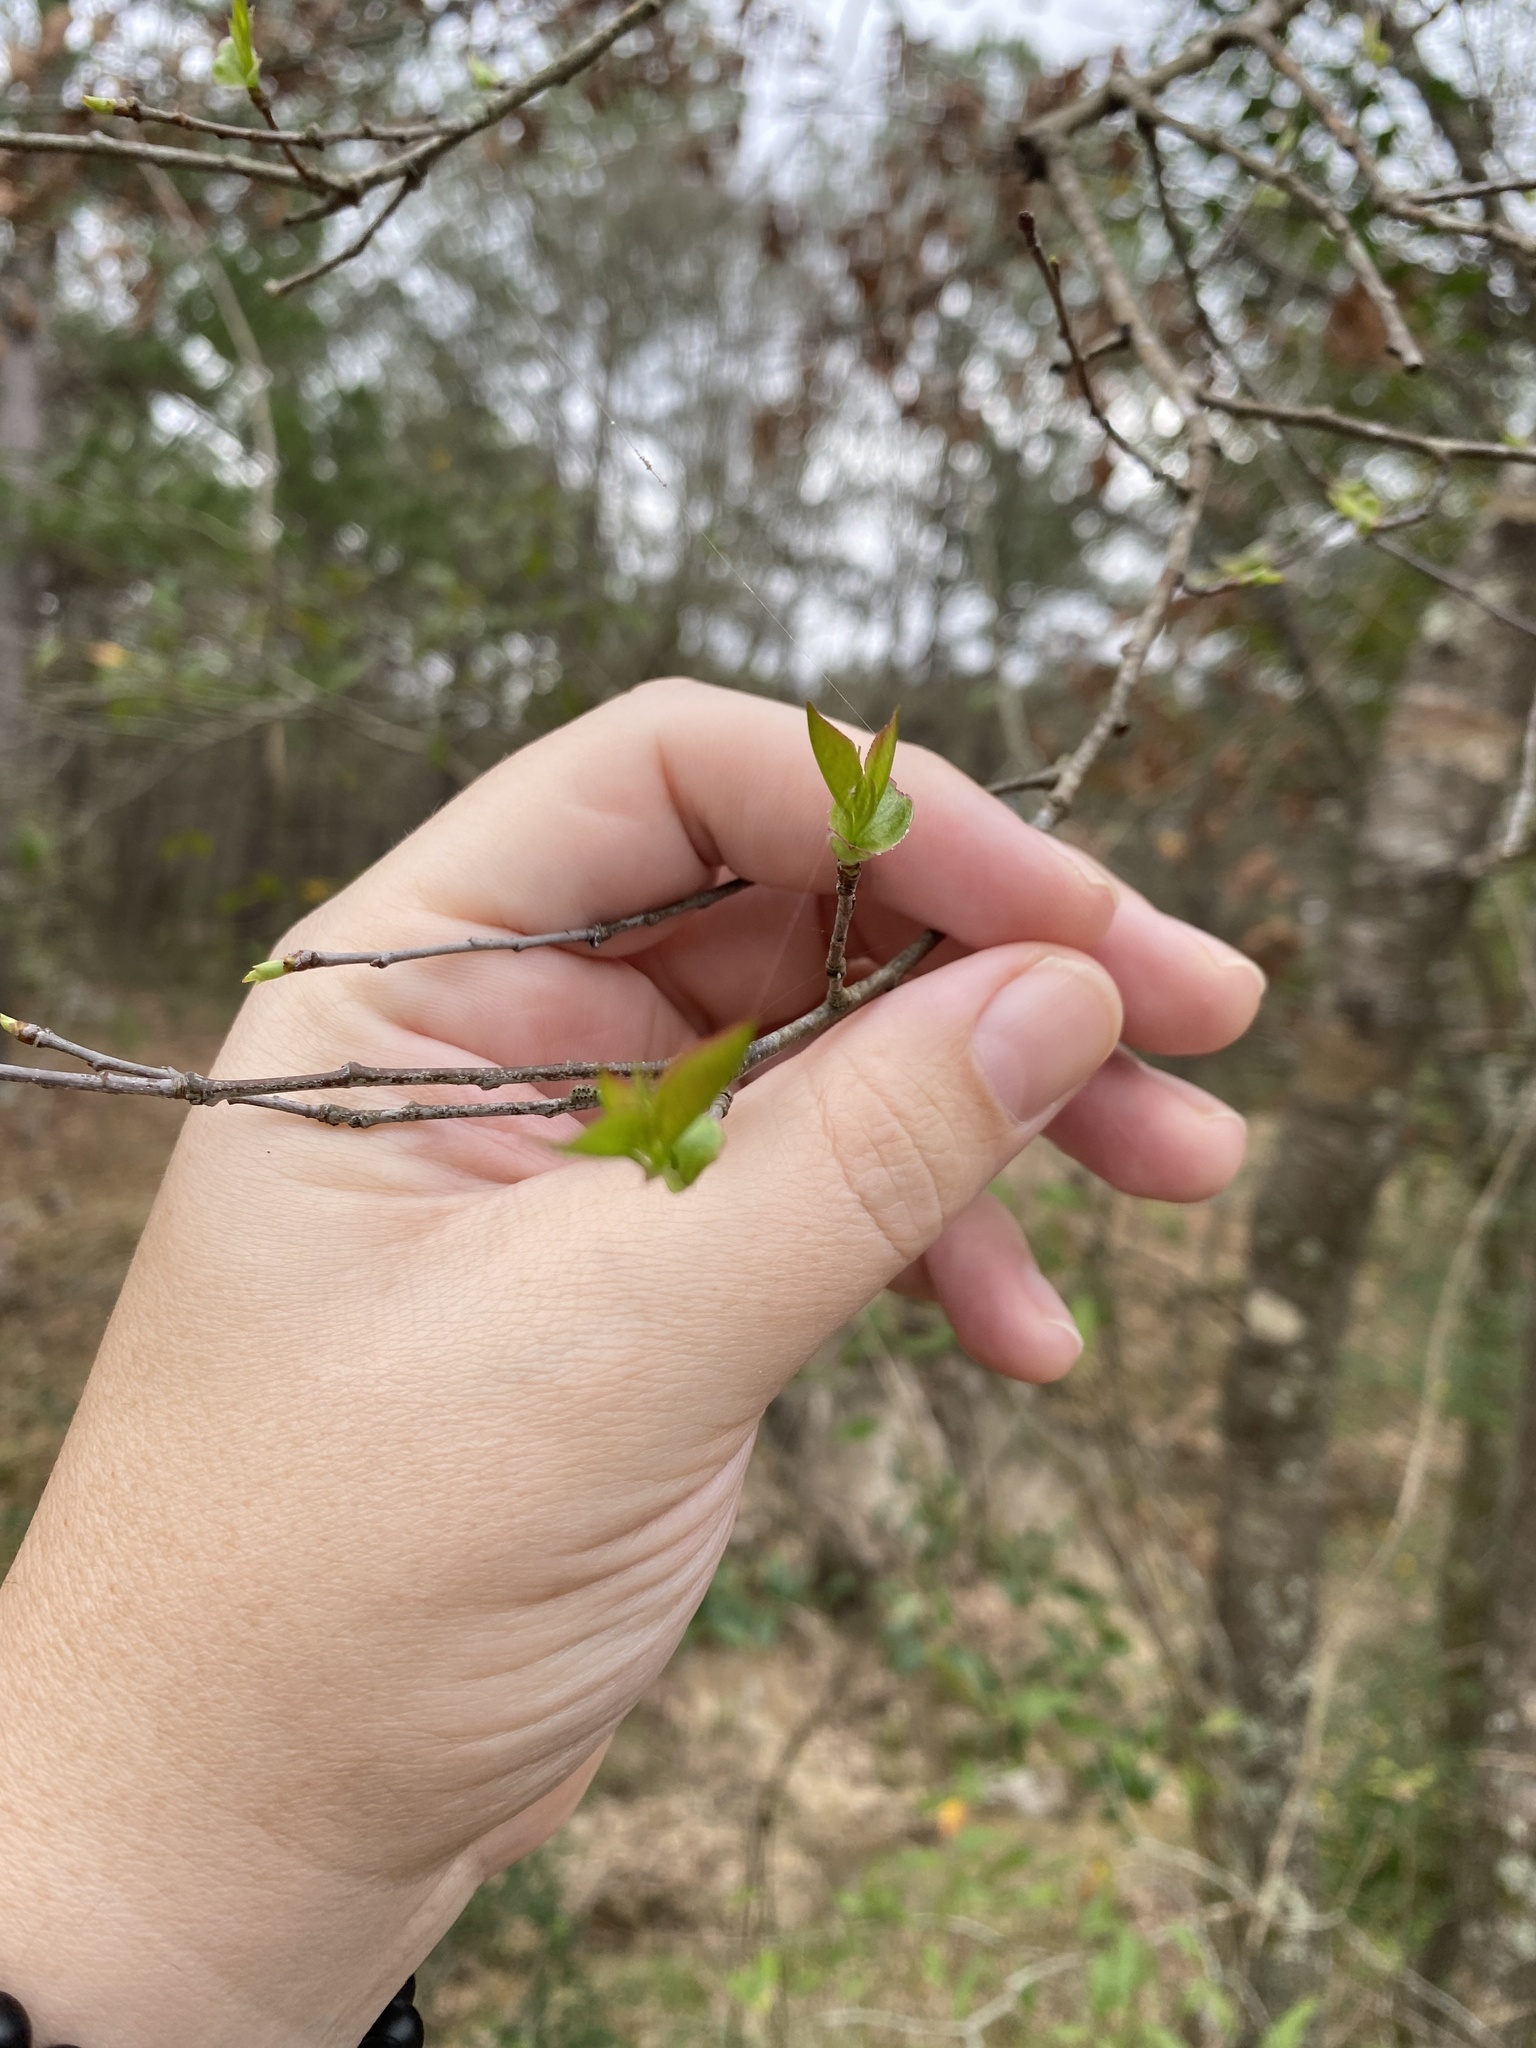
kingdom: Plantae
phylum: Tracheophyta
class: Magnoliopsida
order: Rosales
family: Rosaceae
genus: Prunus
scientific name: Prunus serotina
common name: Black cherry
